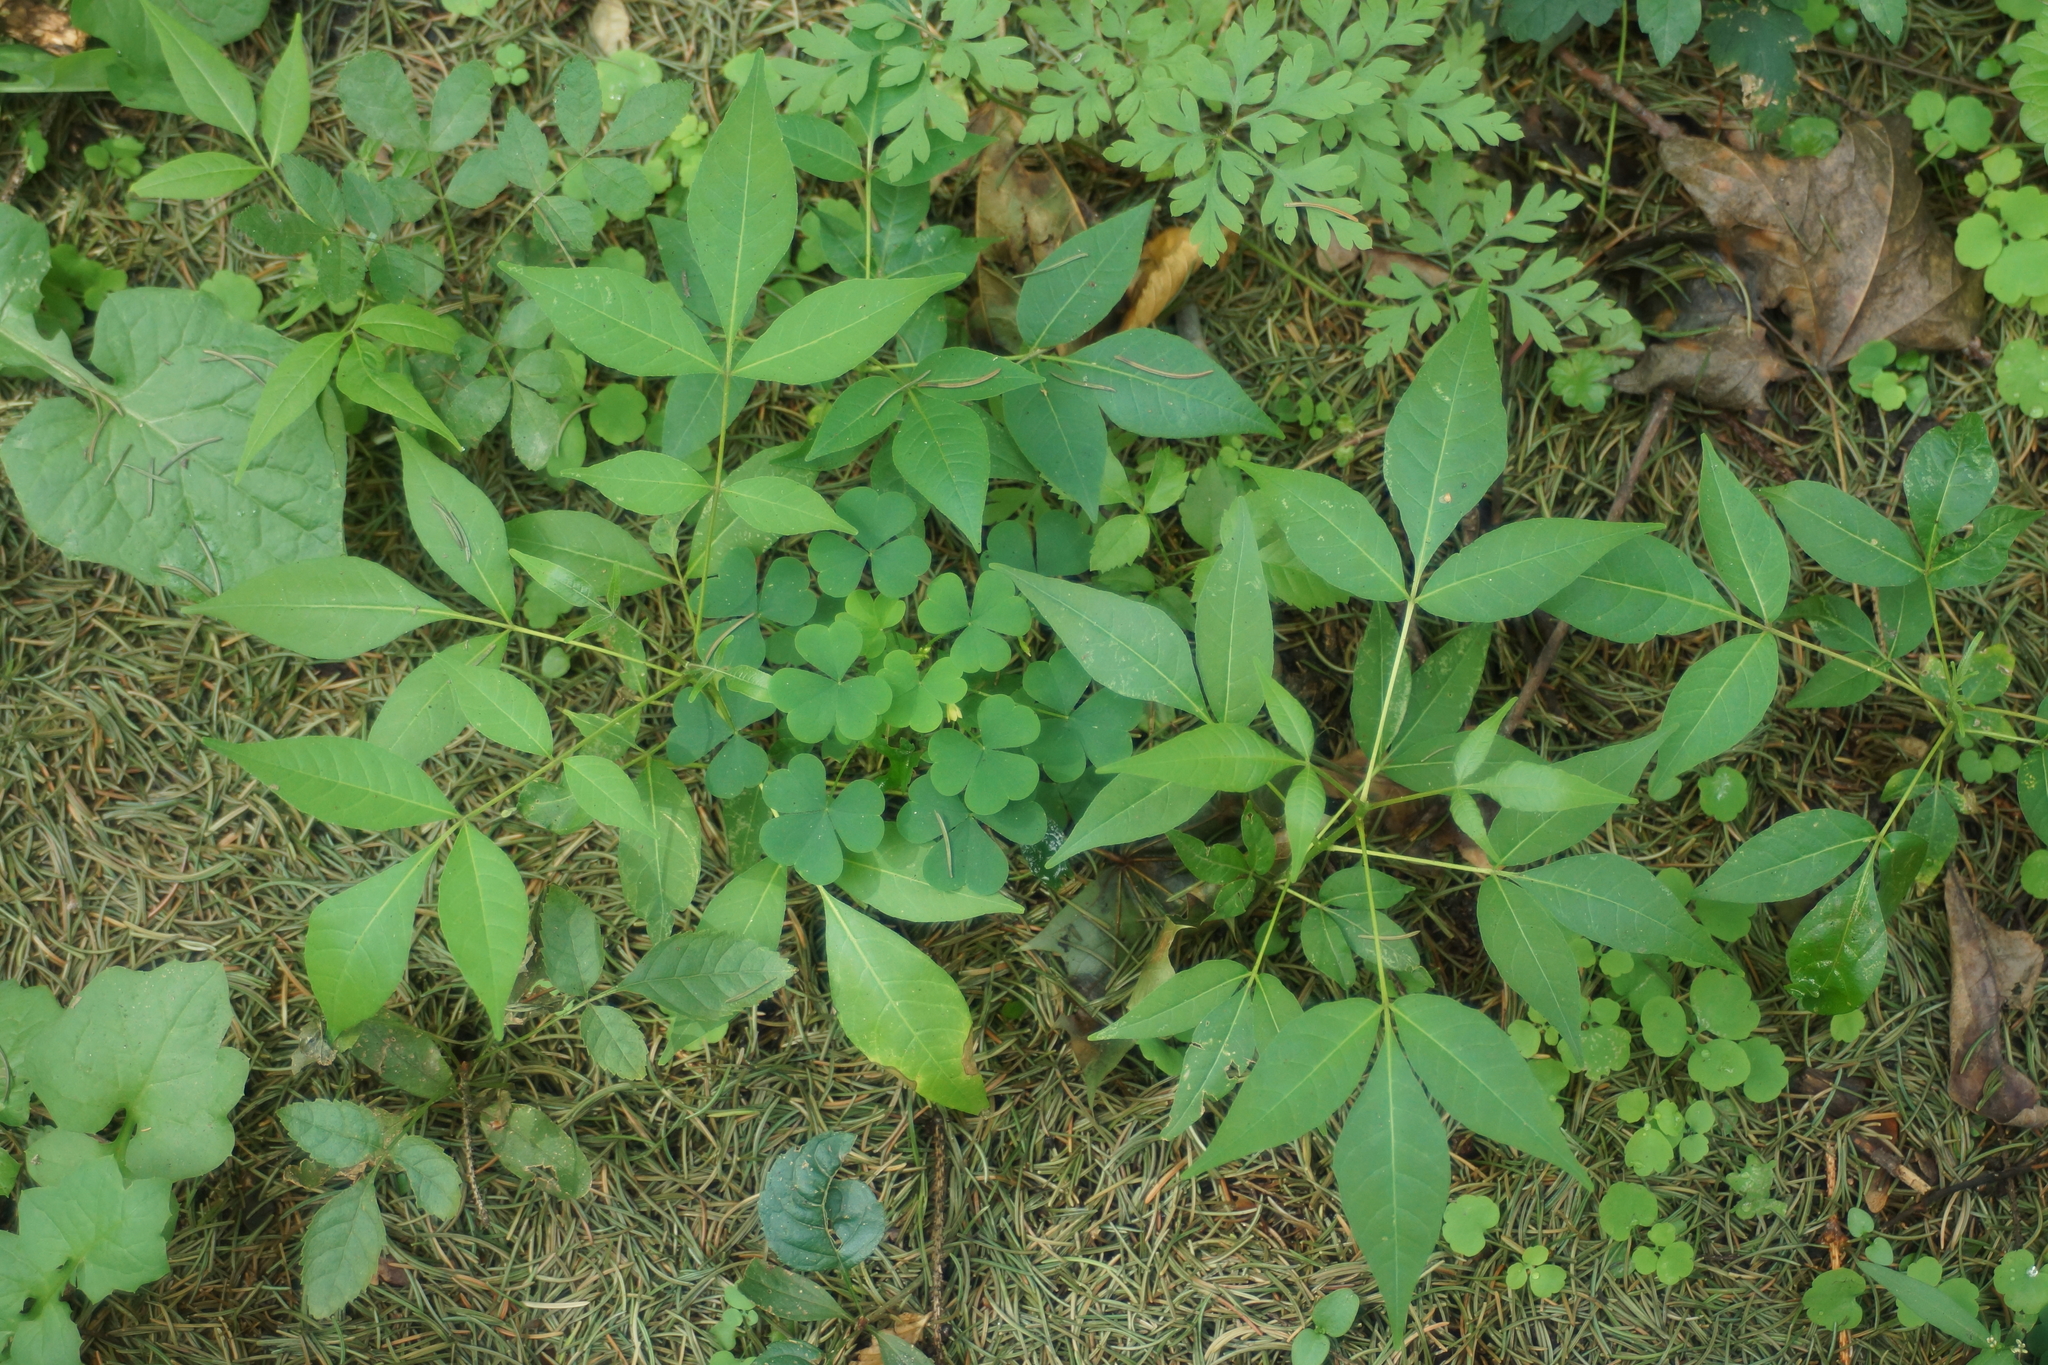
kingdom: Plantae
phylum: Tracheophyta
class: Magnoliopsida
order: Sapindales
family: Rutaceae
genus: Phellodendron
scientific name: Phellodendron amurense
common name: Amur corktree
